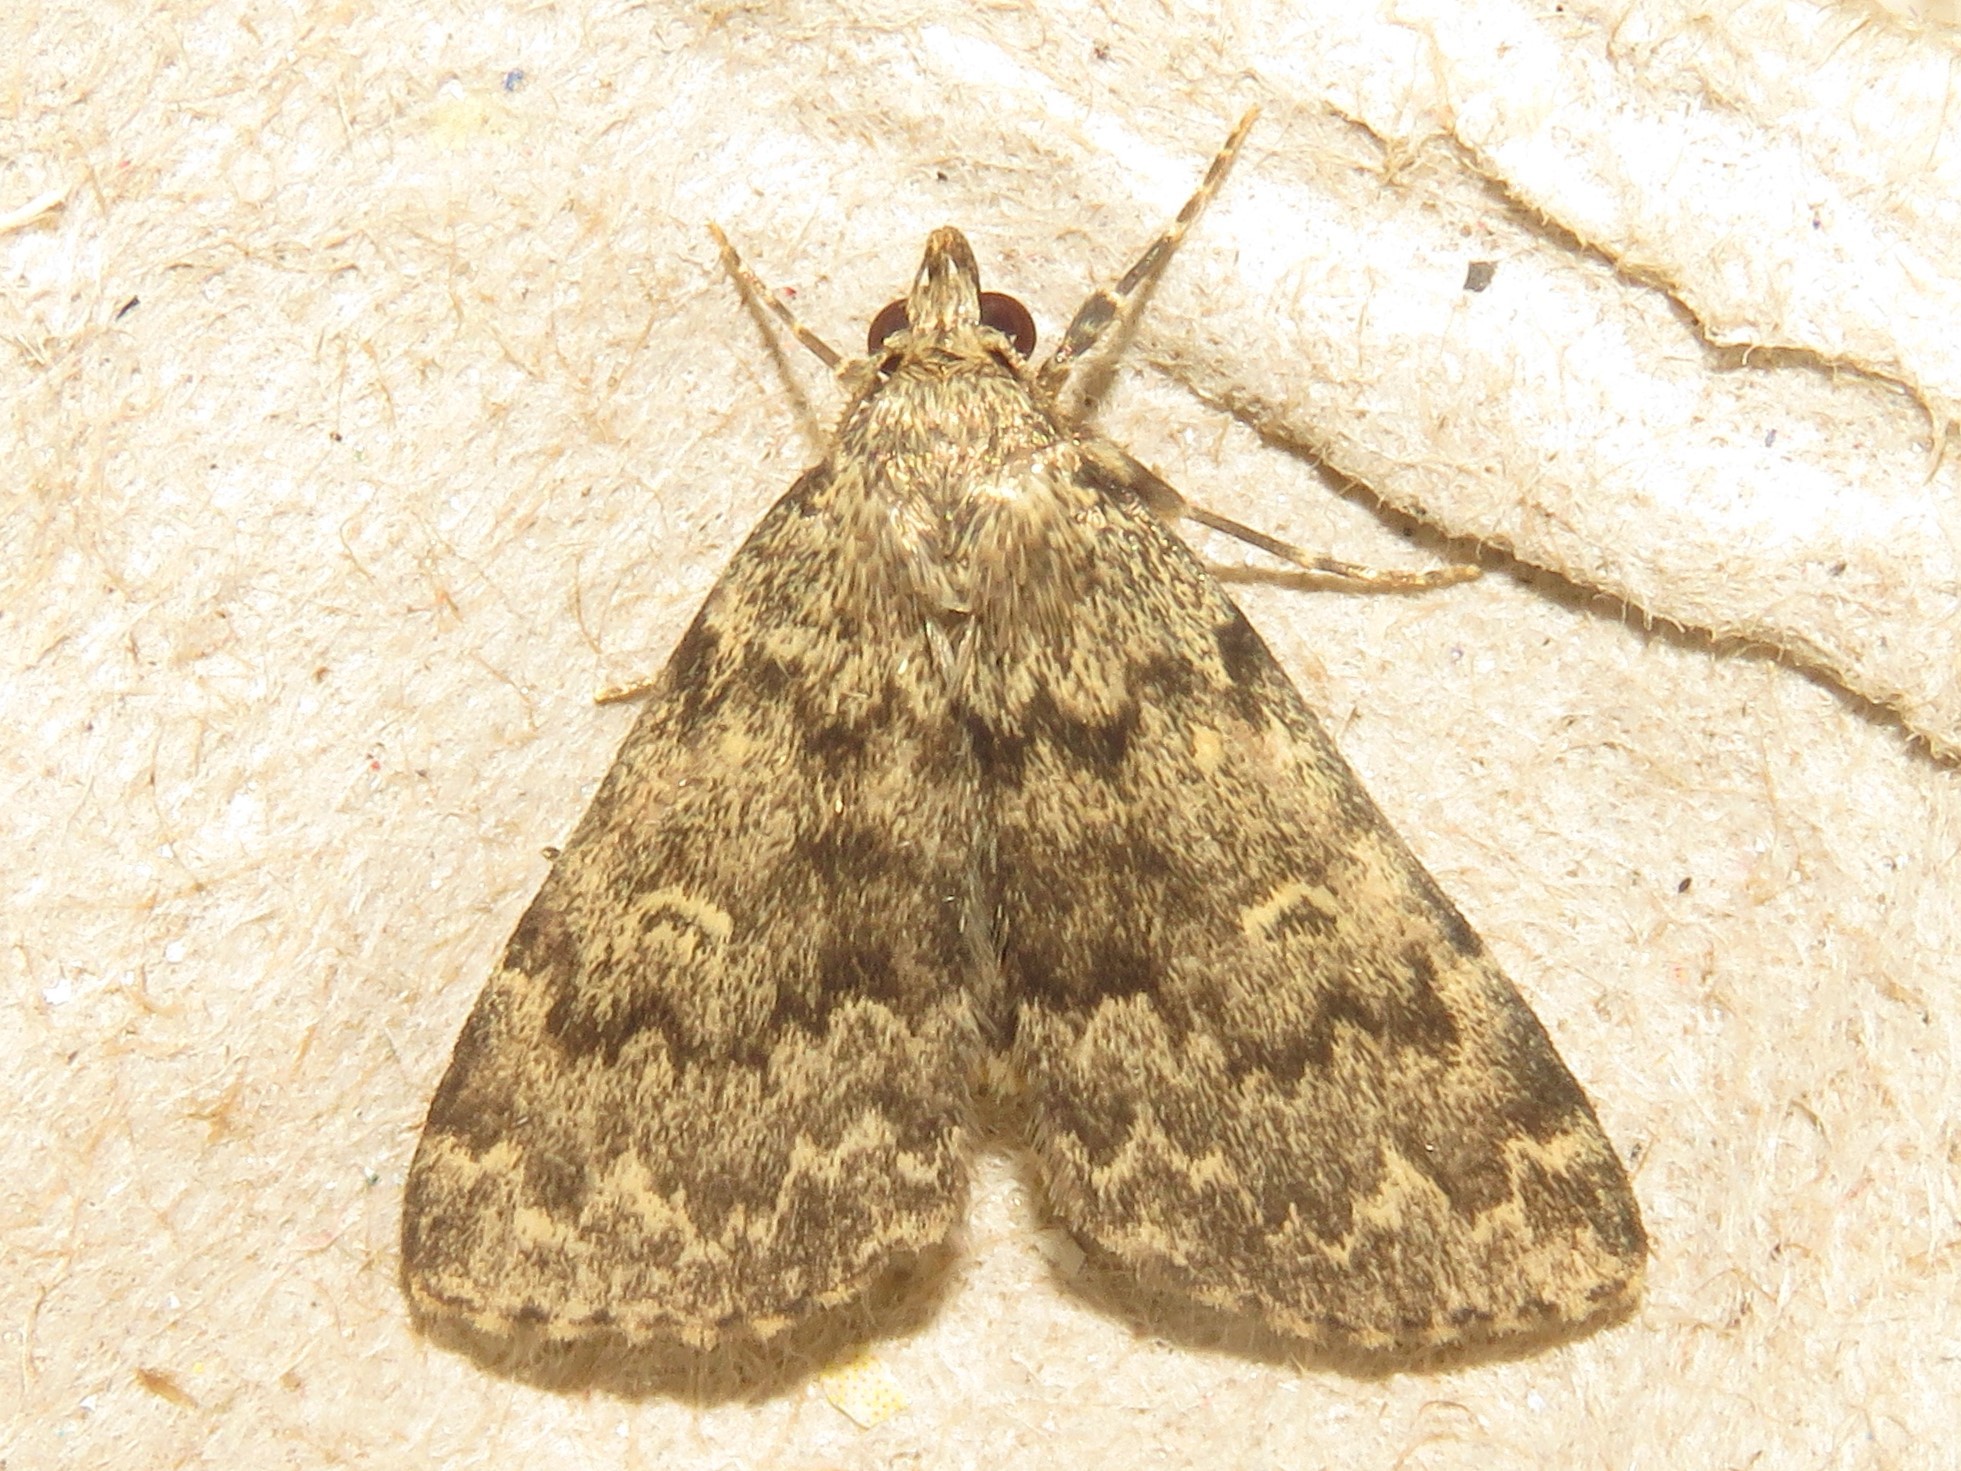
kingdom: Animalia
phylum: Arthropoda
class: Insecta
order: Lepidoptera
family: Erebidae
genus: Idia
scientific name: Idia denticulalis
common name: Toothed idia moth
